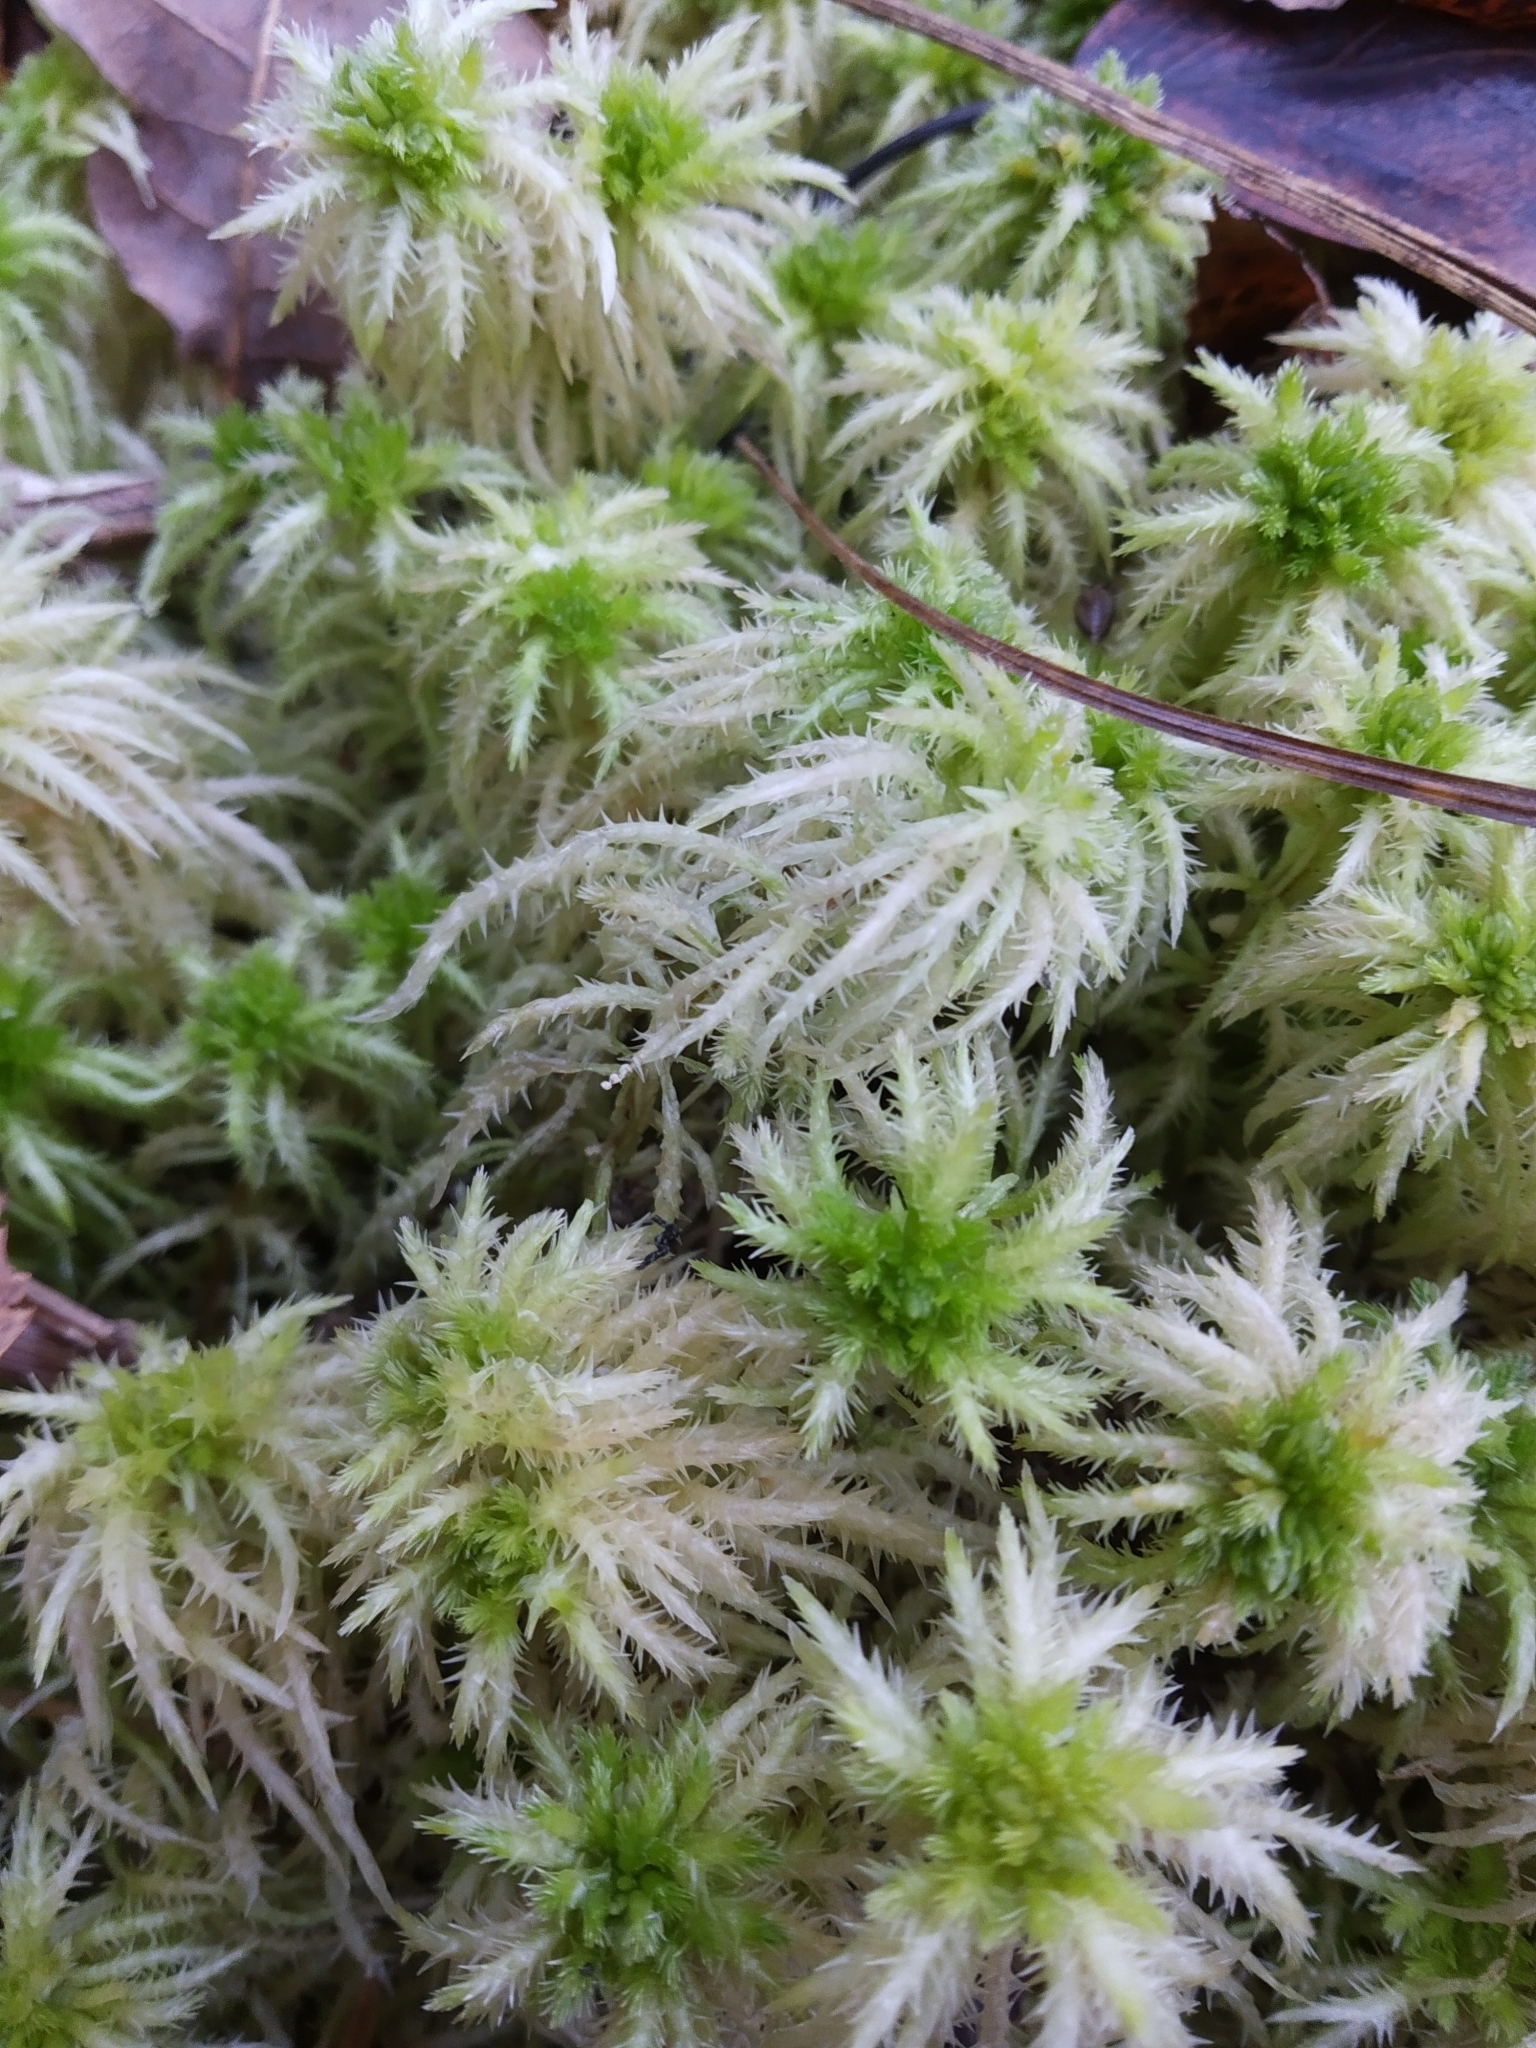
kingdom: Plantae
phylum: Bryophyta
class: Sphagnopsida
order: Sphagnales
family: Sphagnaceae
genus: Sphagnum
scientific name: Sphagnum squarrosum
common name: Shaggy peat moss
